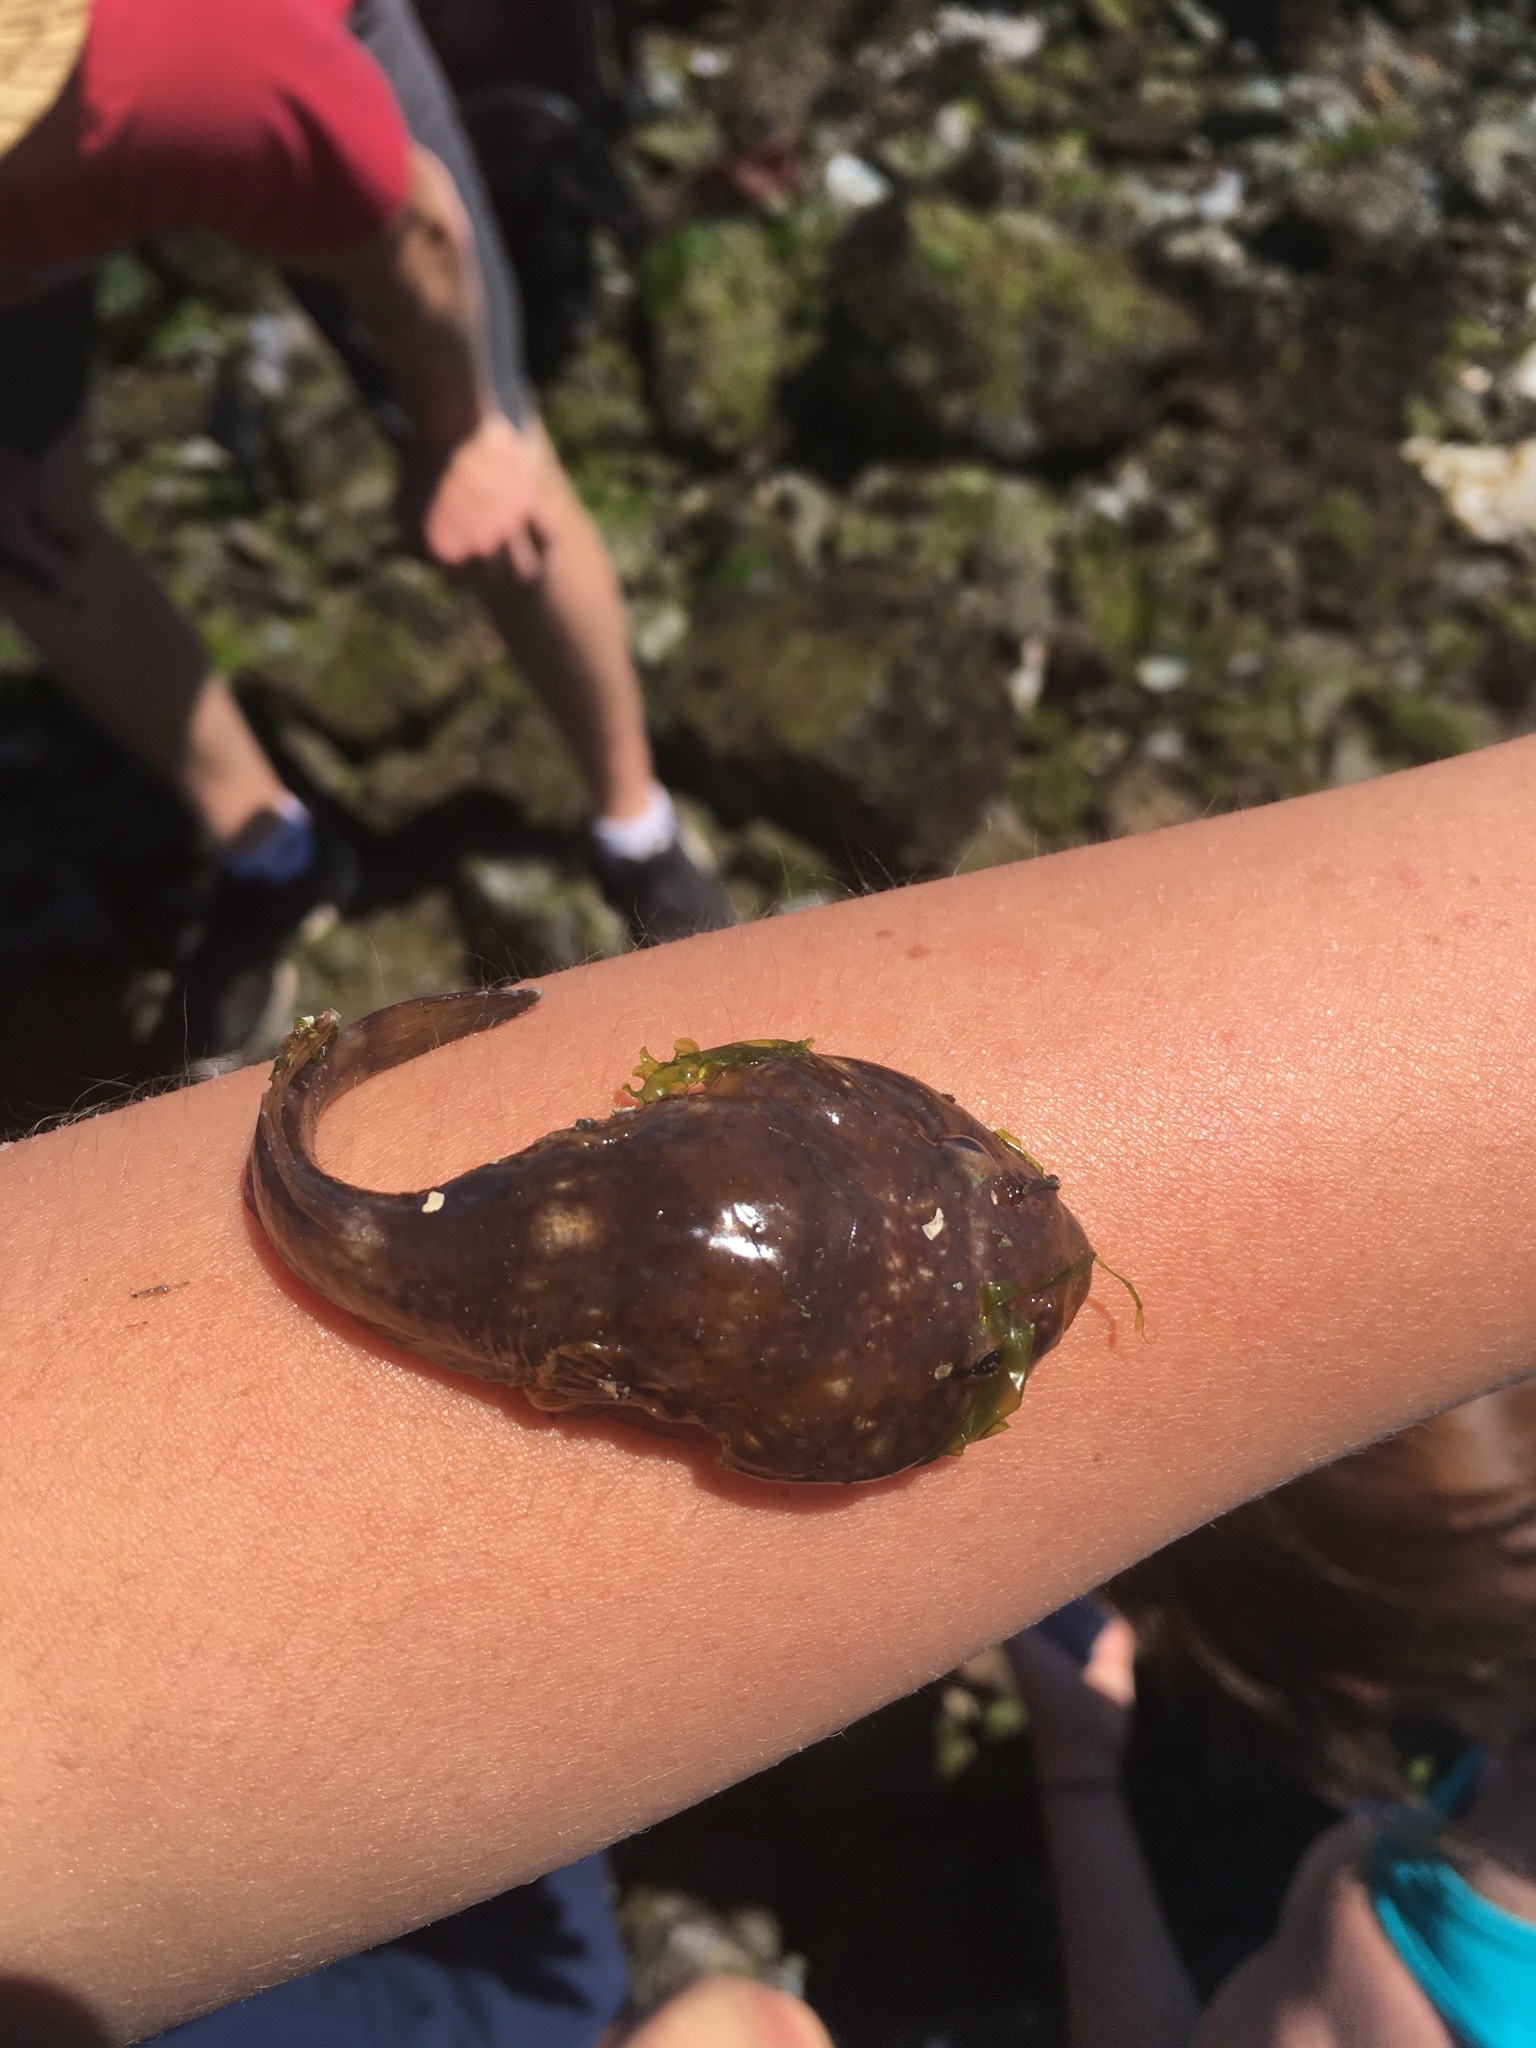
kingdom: Animalia
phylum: Chordata
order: Gobiesociformes
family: Gobiesocidae
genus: Gobiesox
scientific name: Gobiesox maeandricus
